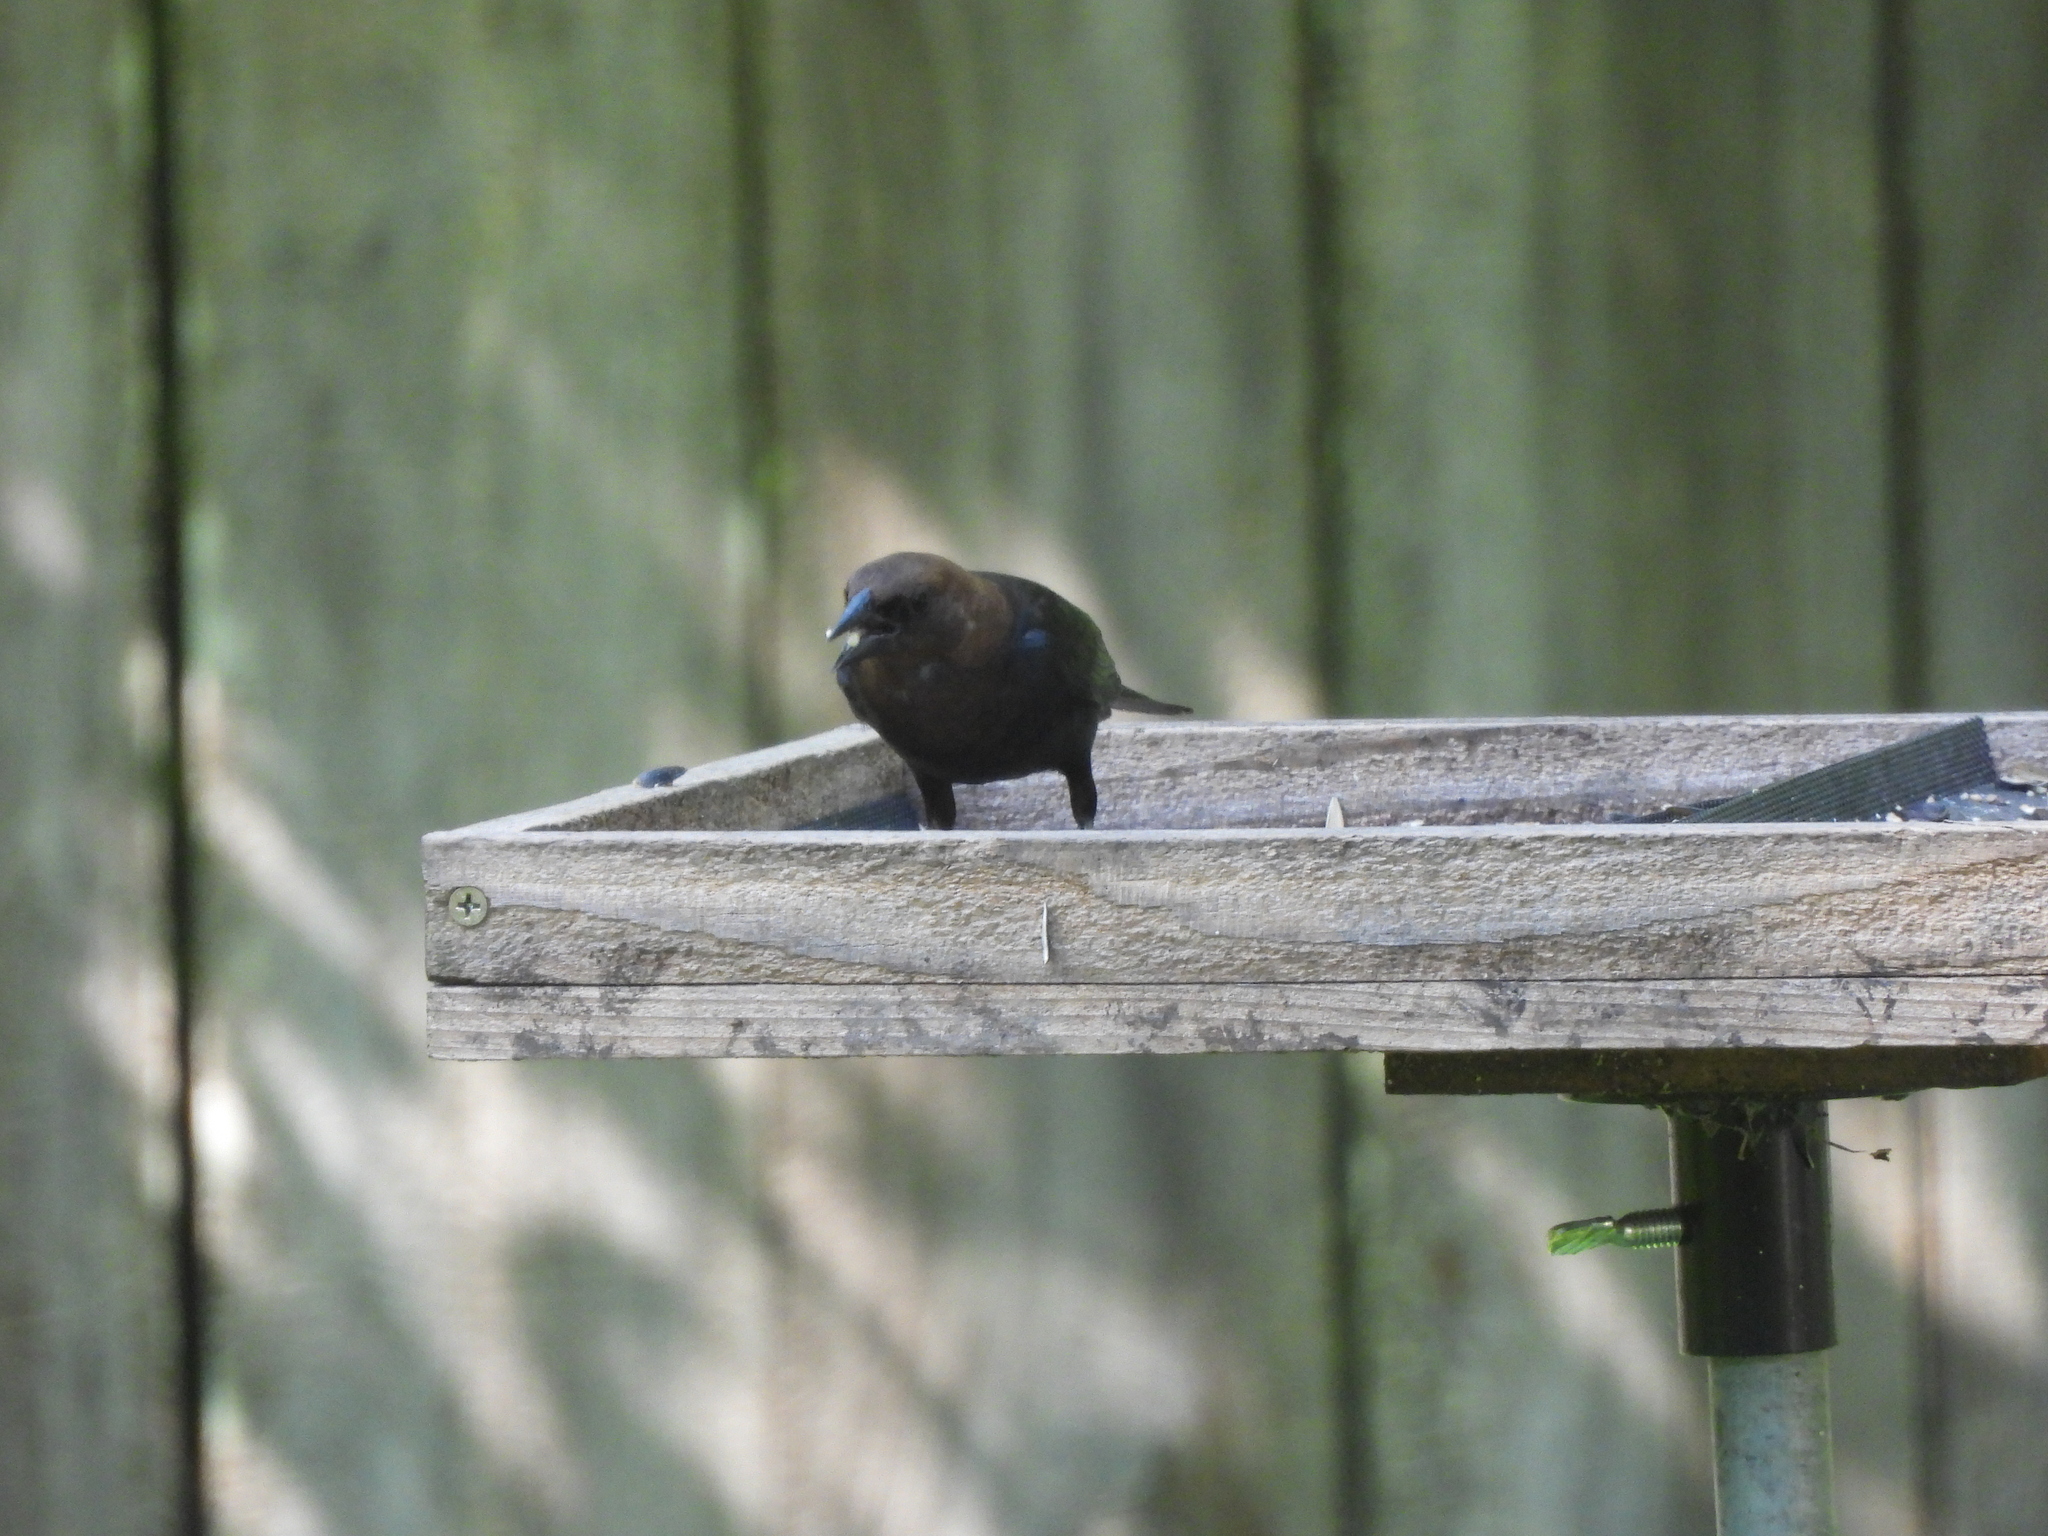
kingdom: Animalia
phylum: Chordata
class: Aves
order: Passeriformes
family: Icteridae
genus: Molothrus
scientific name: Molothrus ater
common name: Brown-headed cowbird
